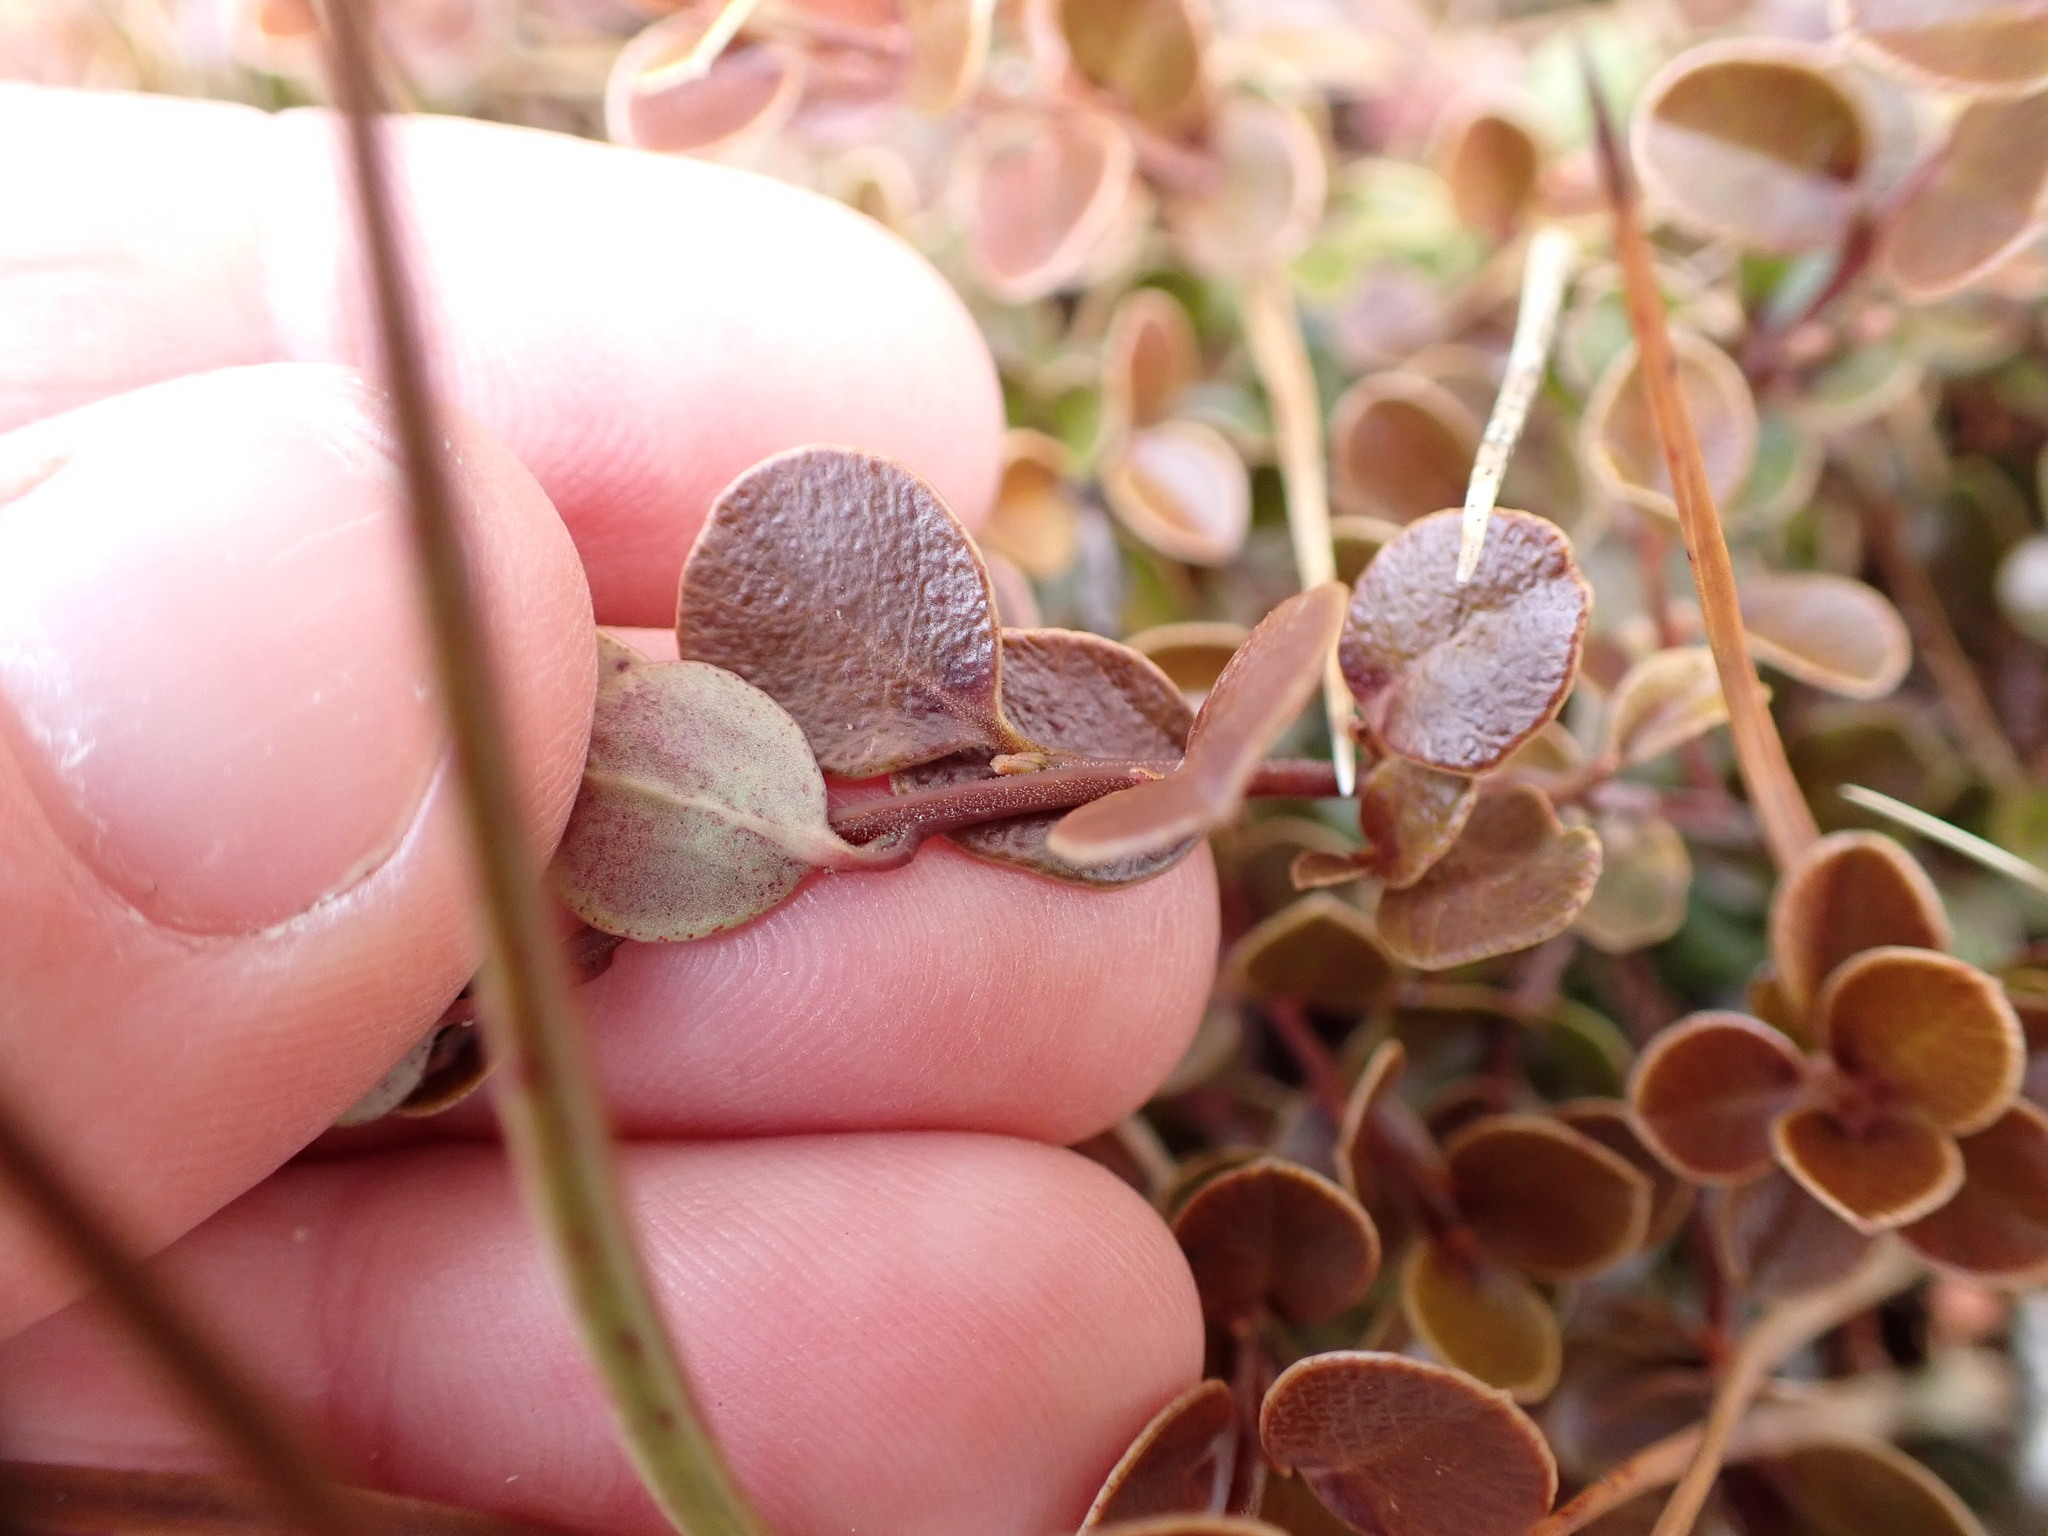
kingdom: Plantae
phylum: Tracheophyta
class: Magnoliopsida
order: Ericales
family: Primulaceae
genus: Myrsine
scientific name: Myrsine nummularia
